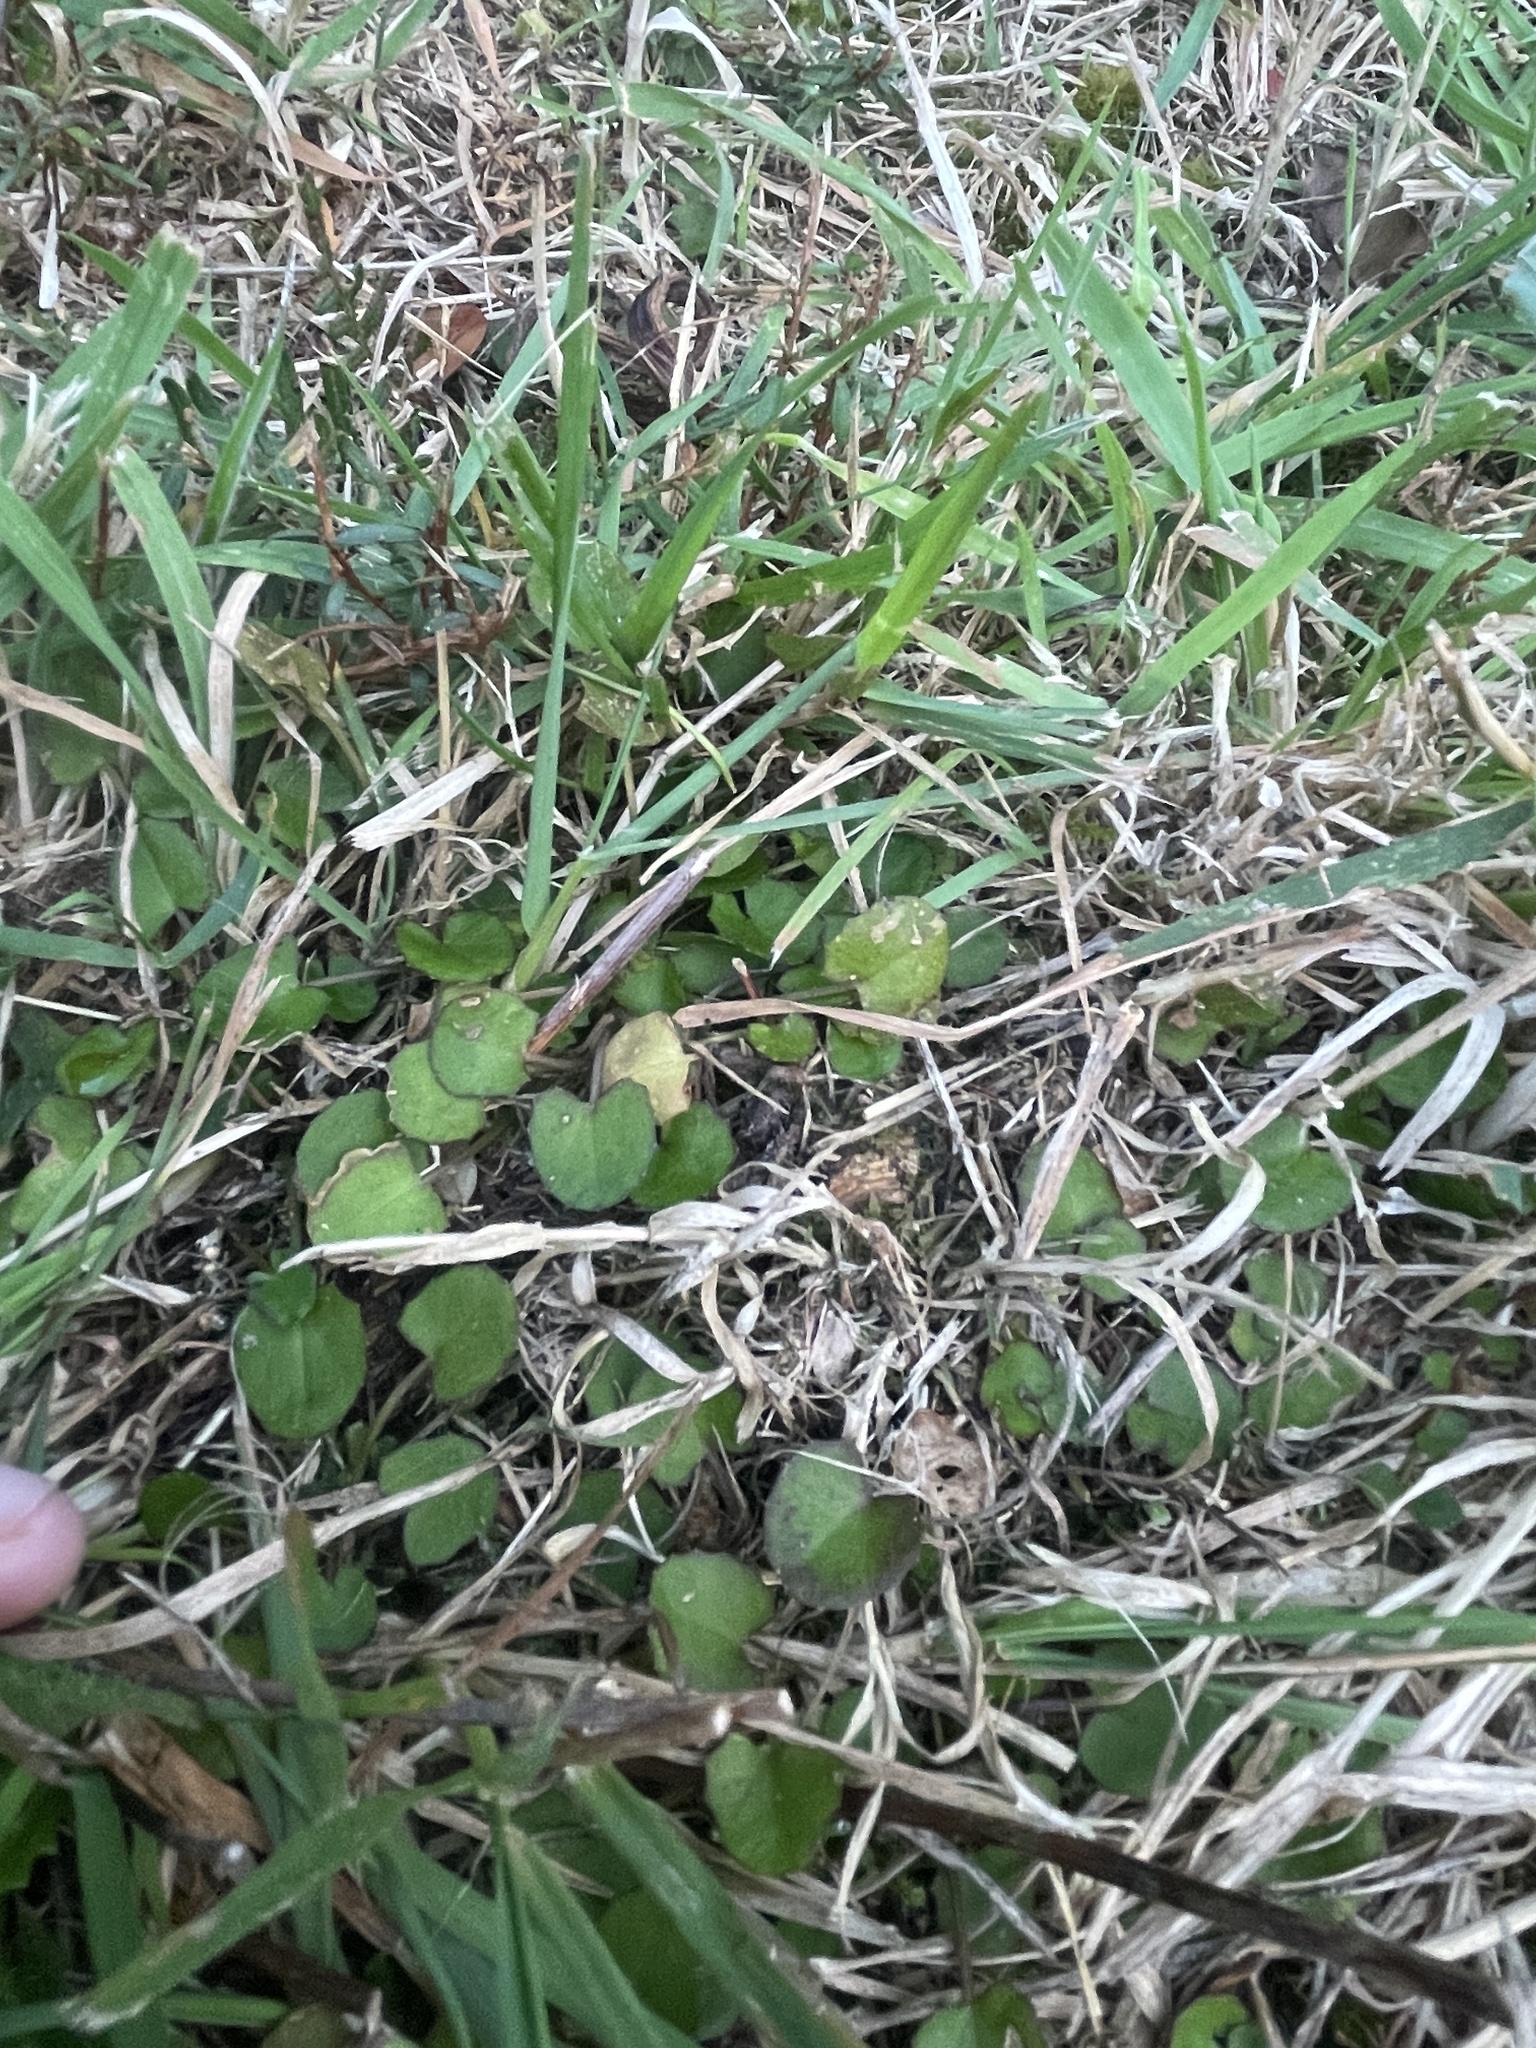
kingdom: Plantae
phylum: Tracheophyta
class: Magnoliopsida
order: Apiales
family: Apiaceae
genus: Centella
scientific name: Centella uniflora
